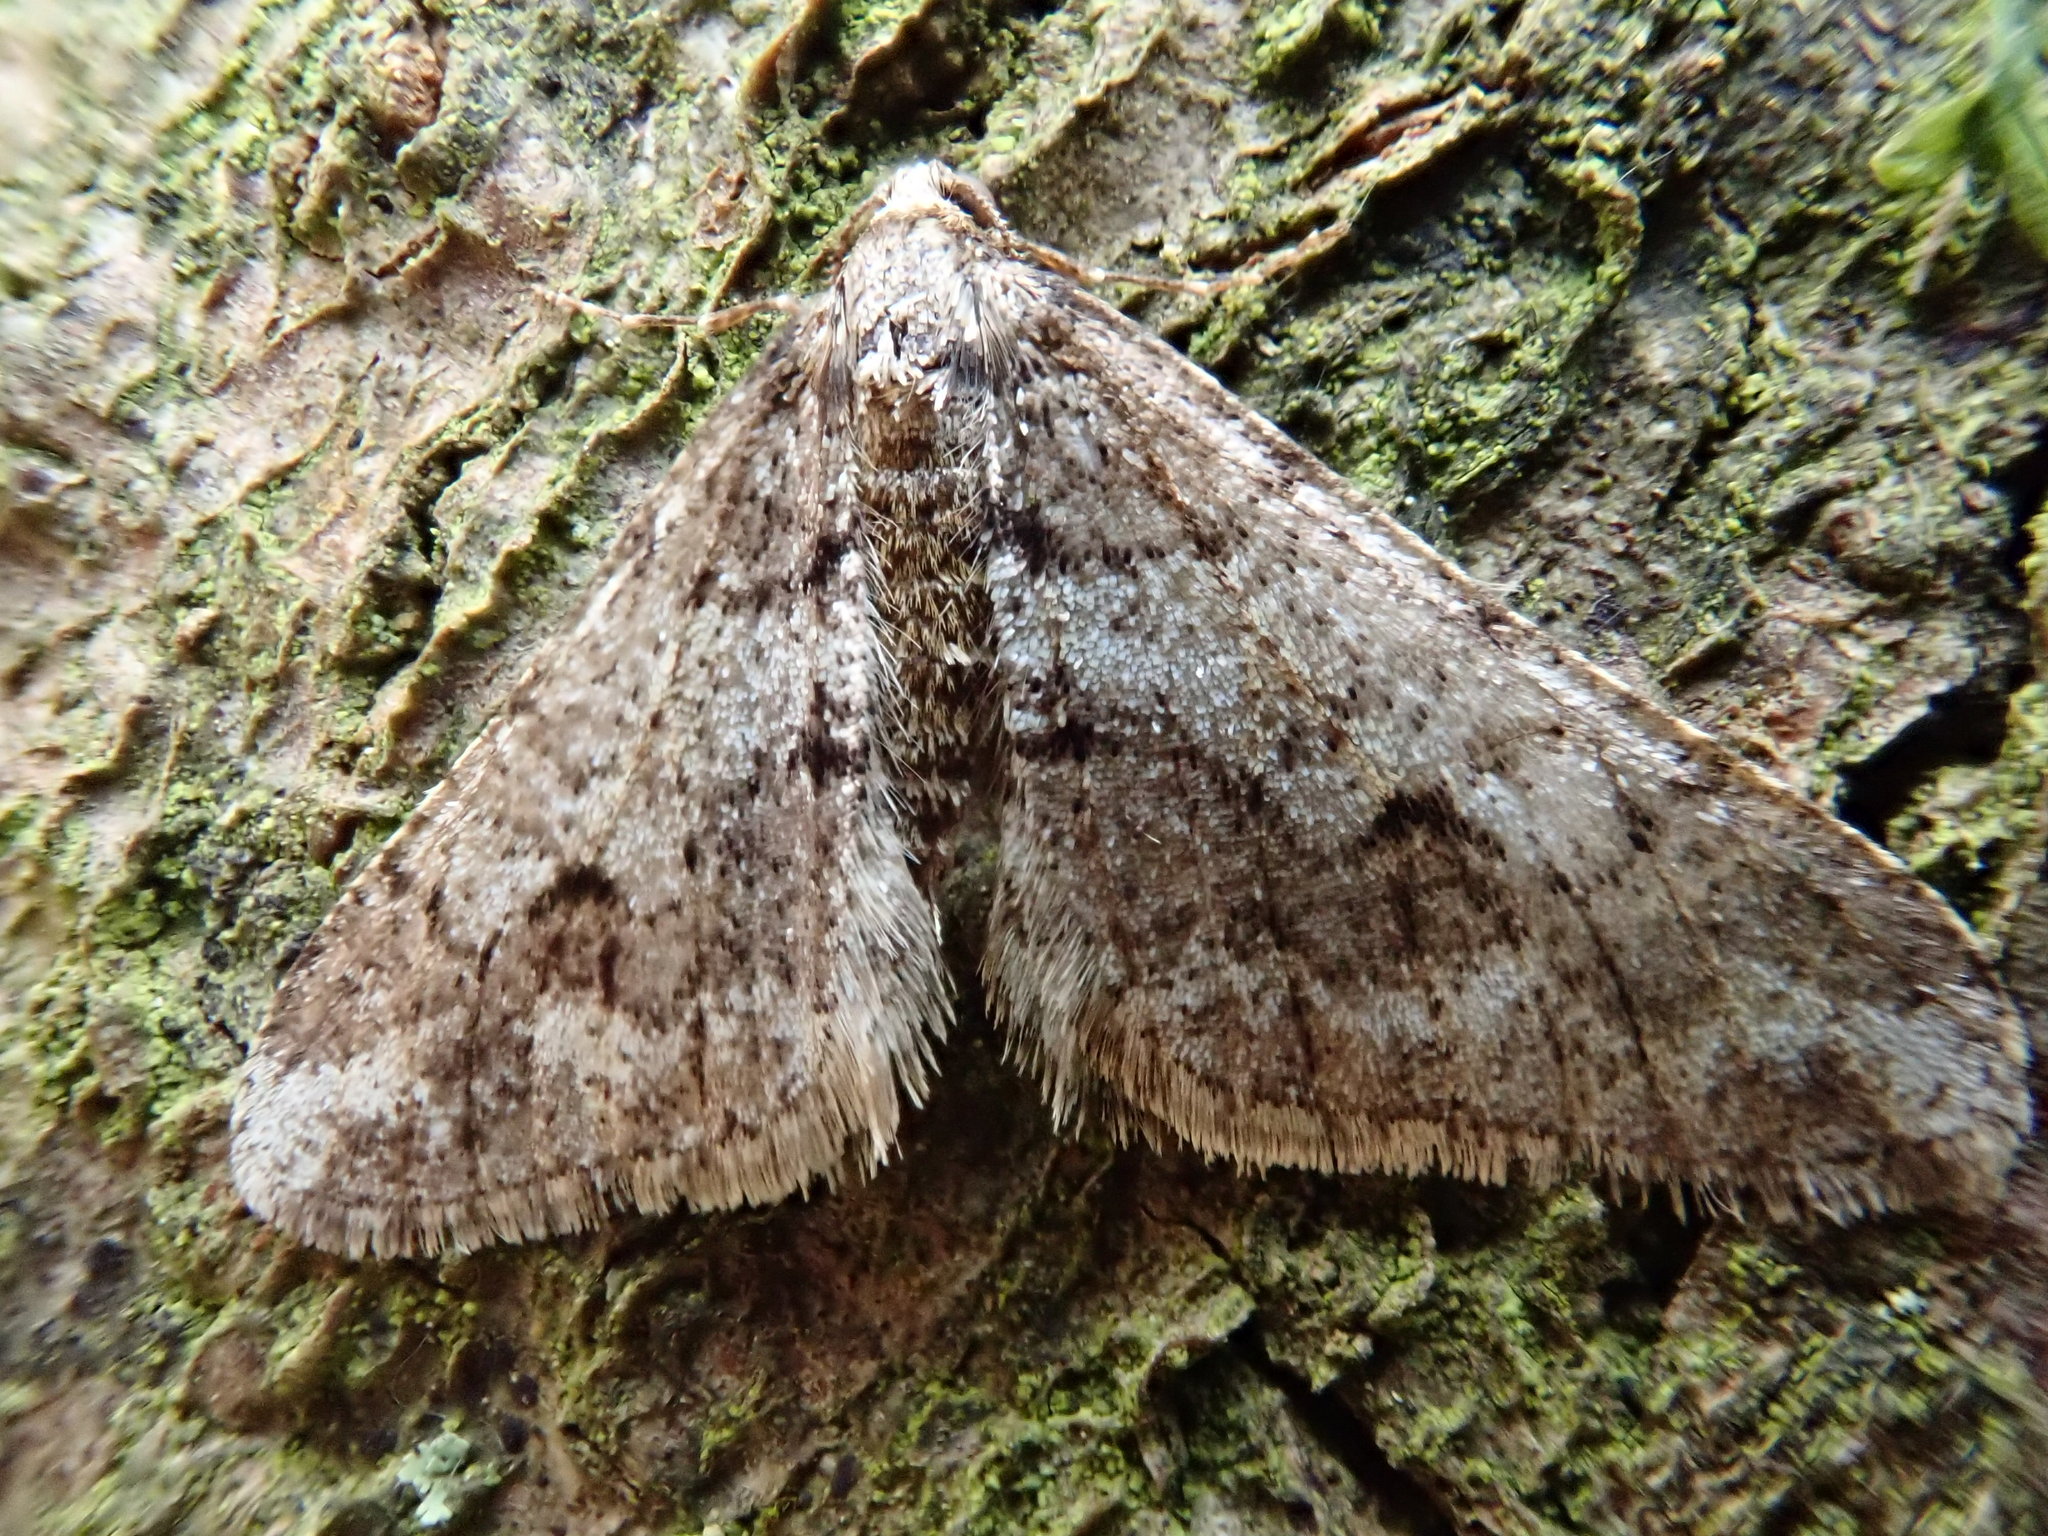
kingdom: Animalia
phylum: Arthropoda
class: Insecta
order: Lepidoptera
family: Geometridae
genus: Agriopis
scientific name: Agriopis leucophaearia
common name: Spring usher
